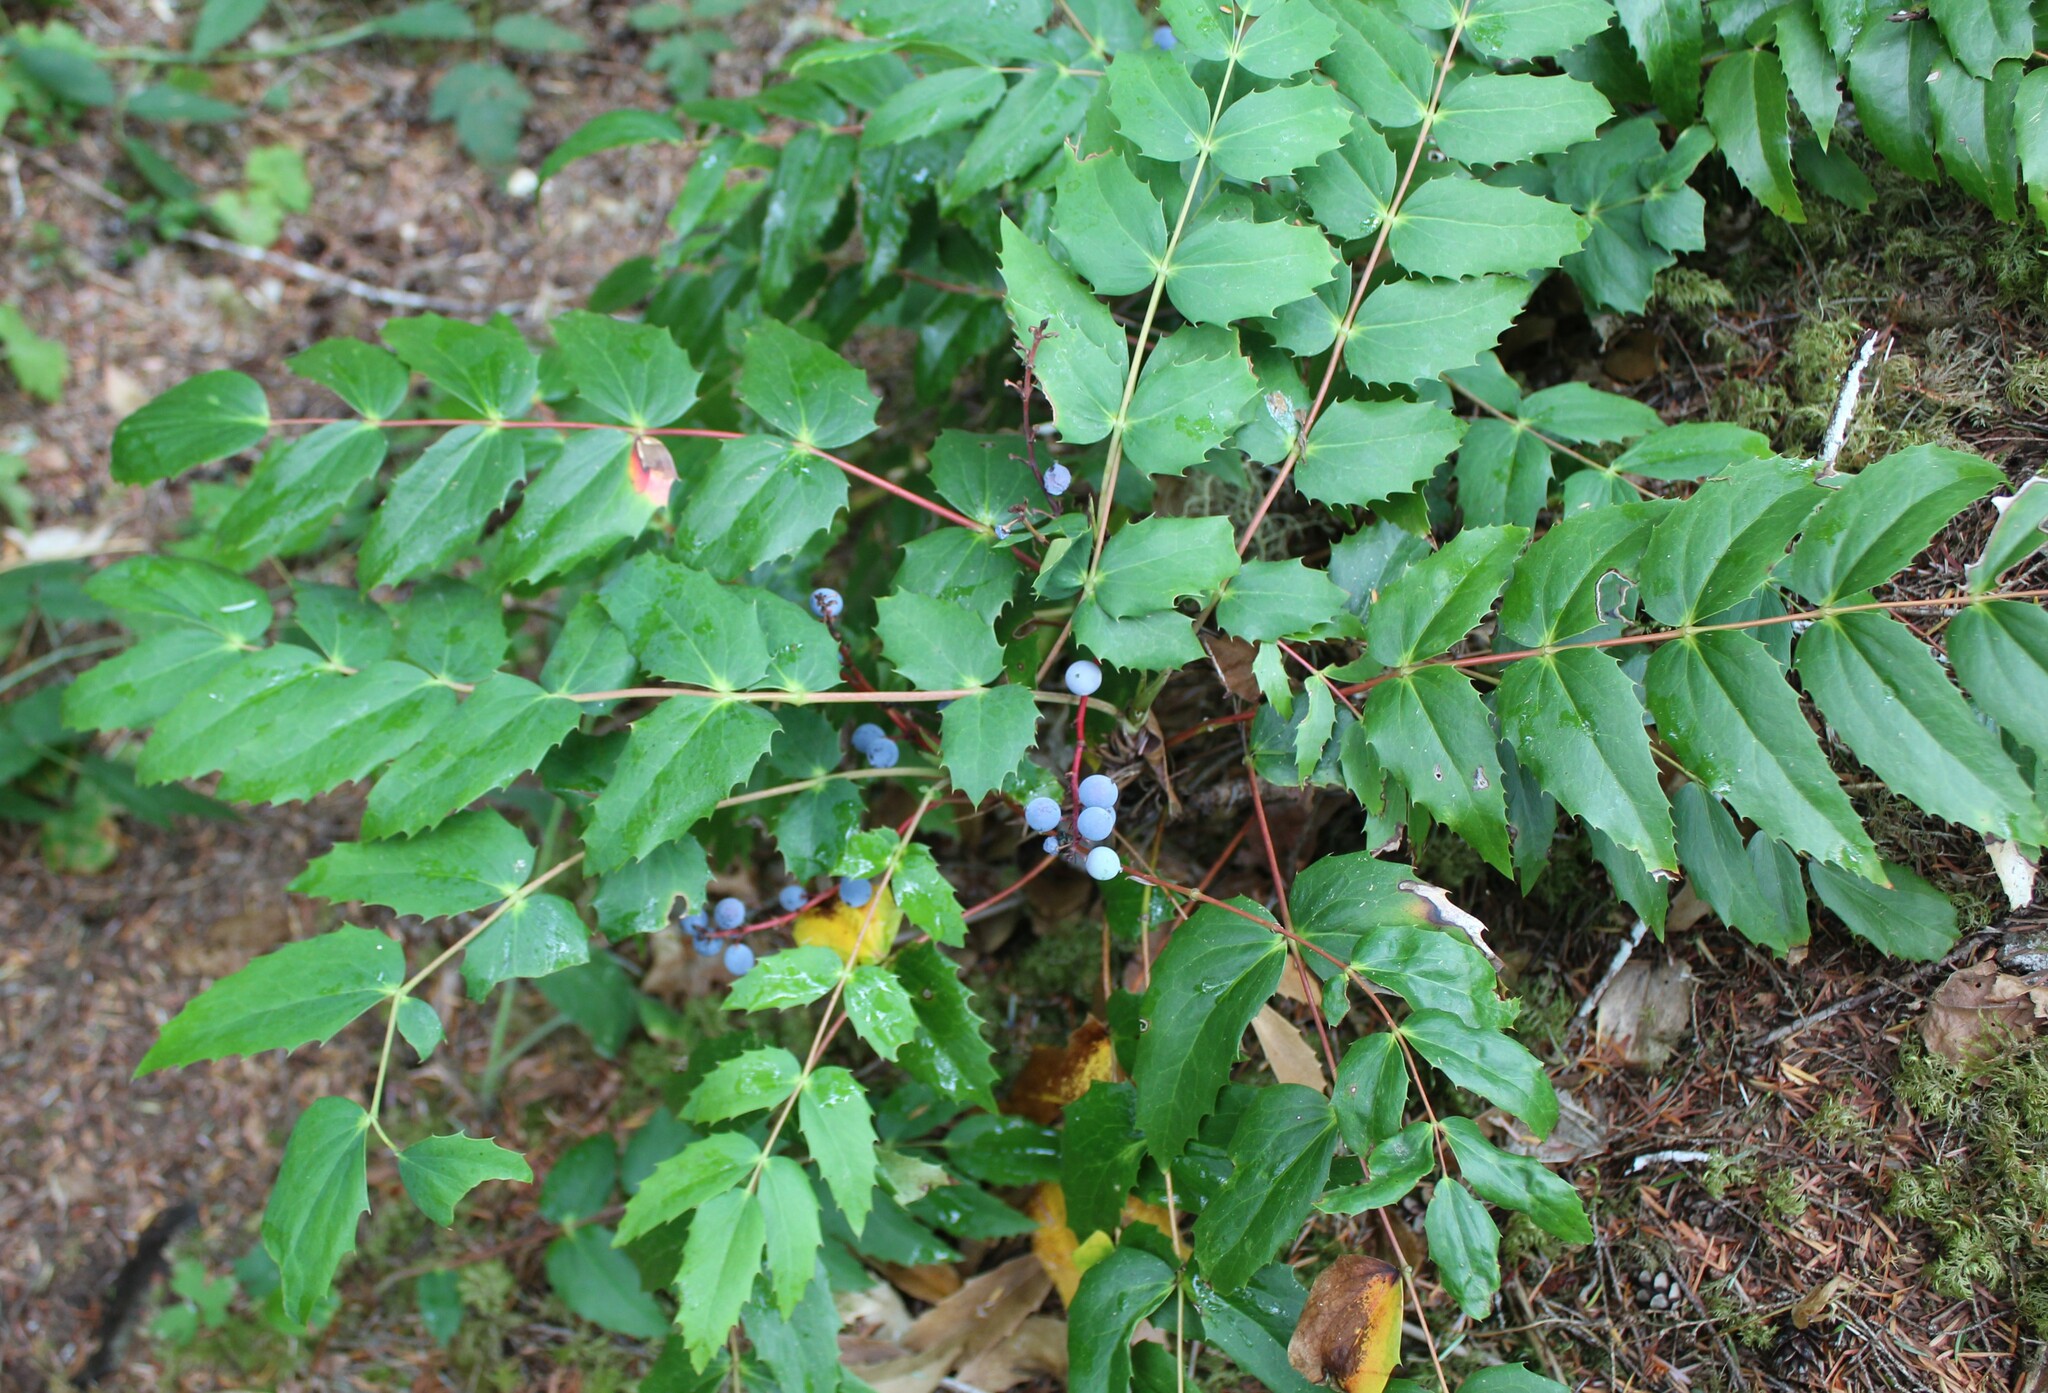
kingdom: Plantae
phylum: Tracheophyta
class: Magnoliopsida
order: Ranunculales
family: Berberidaceae
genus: Mahonia
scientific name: Mahonia nervosa
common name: Cascade oregon-grape
